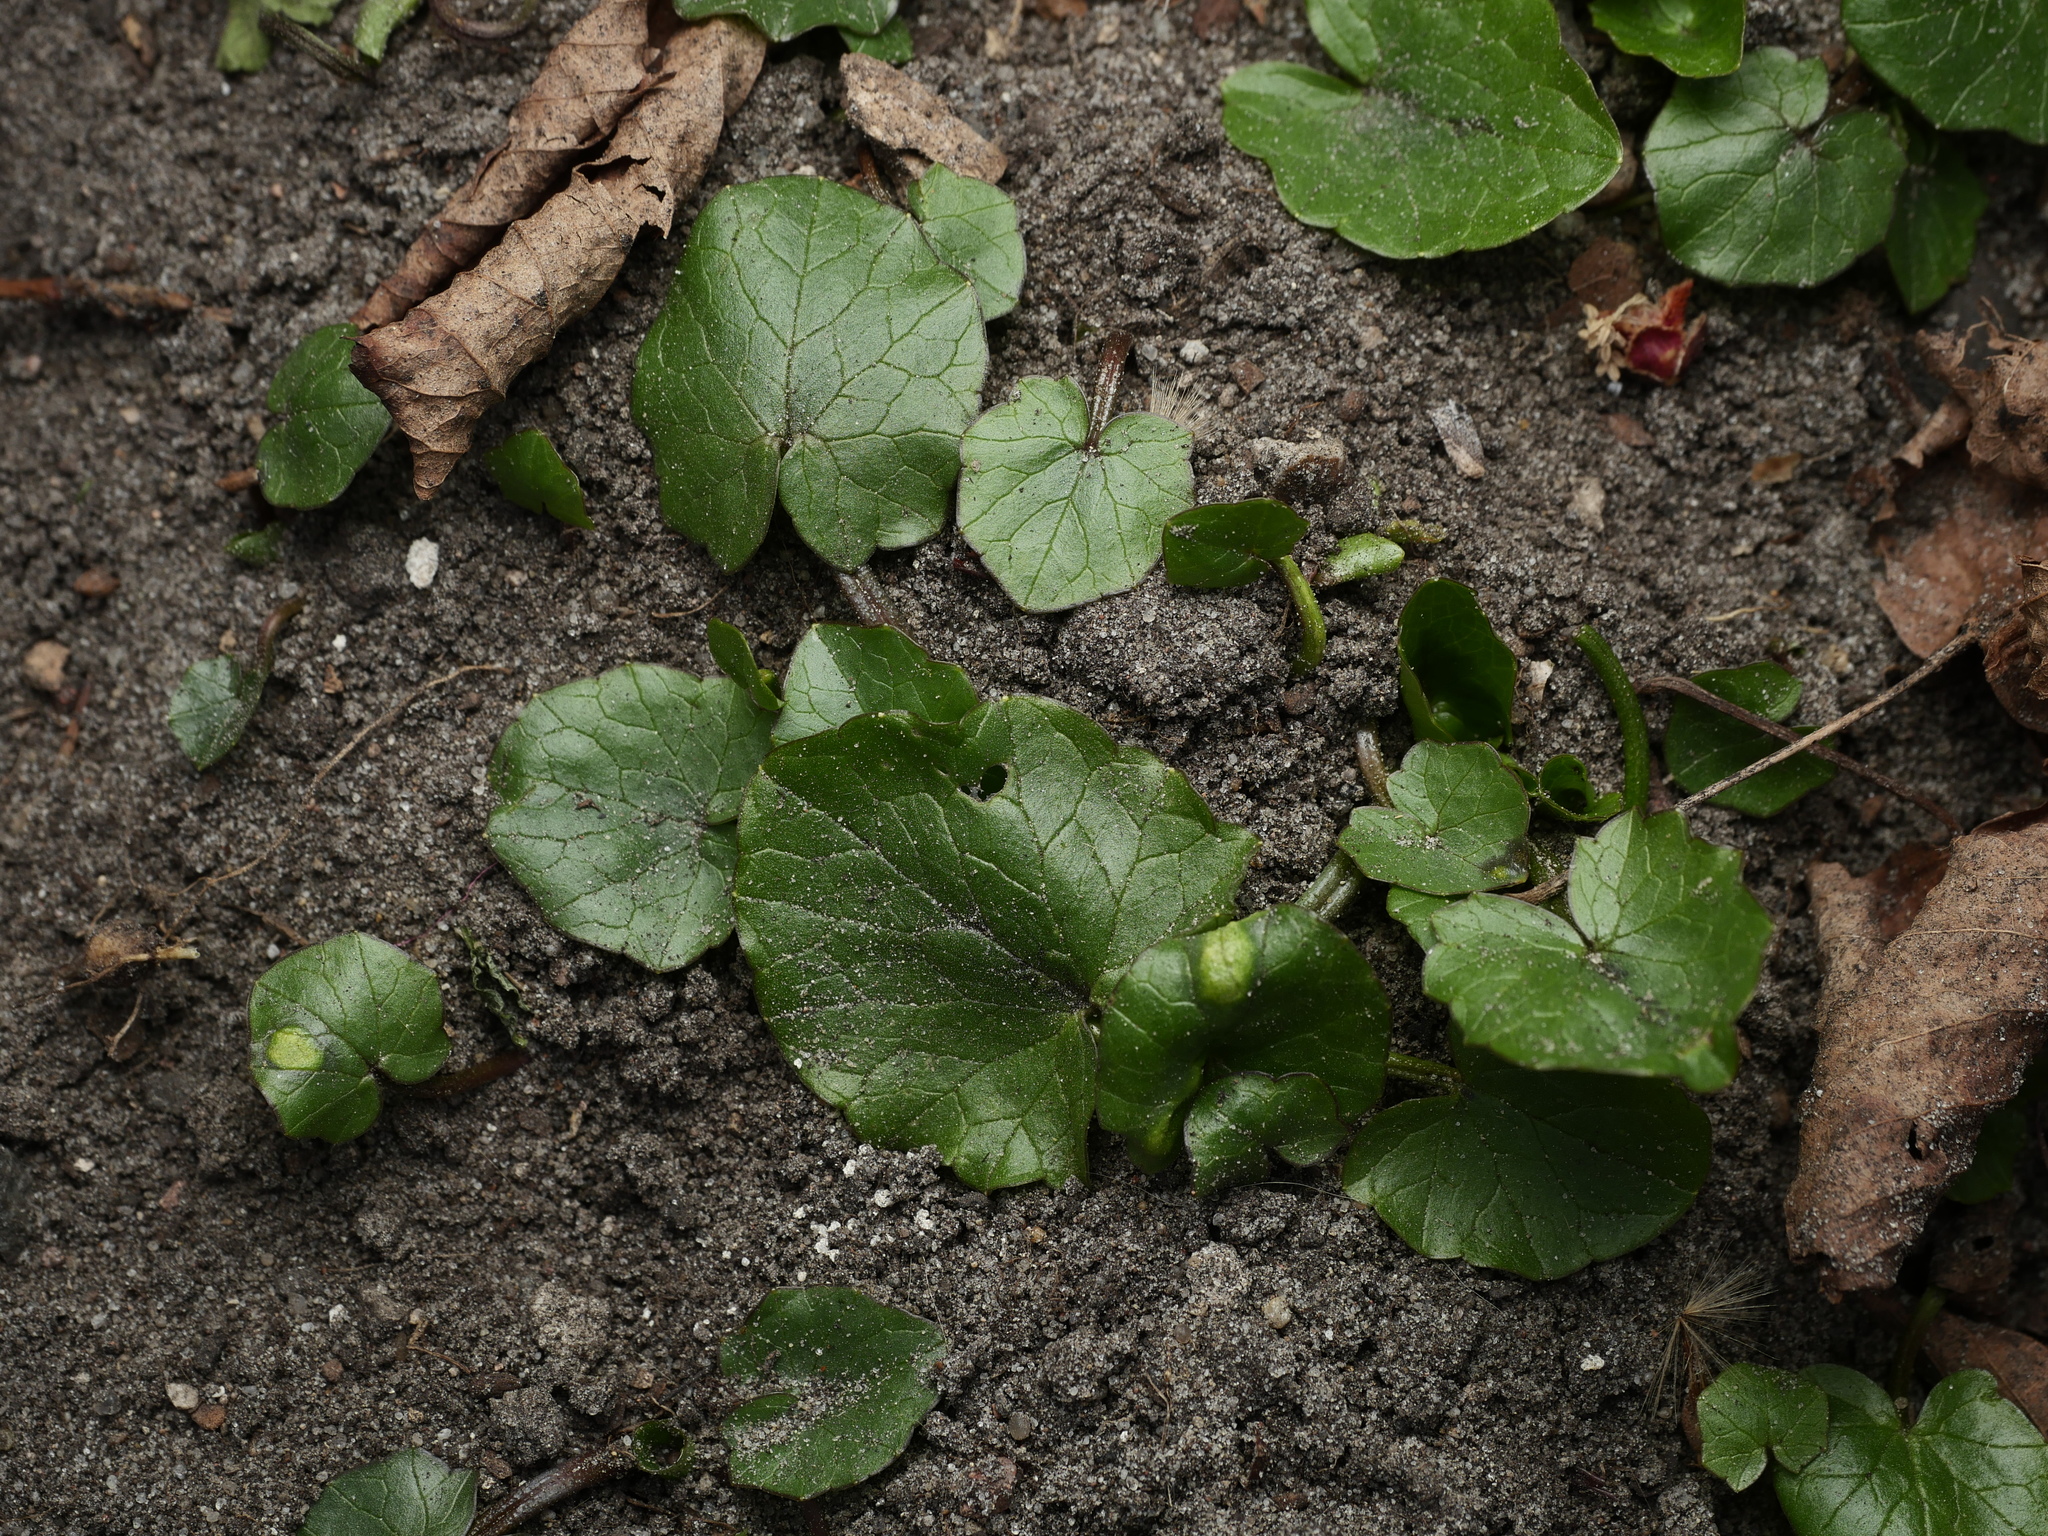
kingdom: Plantae
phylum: Tracheophyta
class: Magnoliopsida
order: Ranunculales
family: Ranunculaceae
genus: Ficaria
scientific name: Ficaria verna
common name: Lesser celandine
